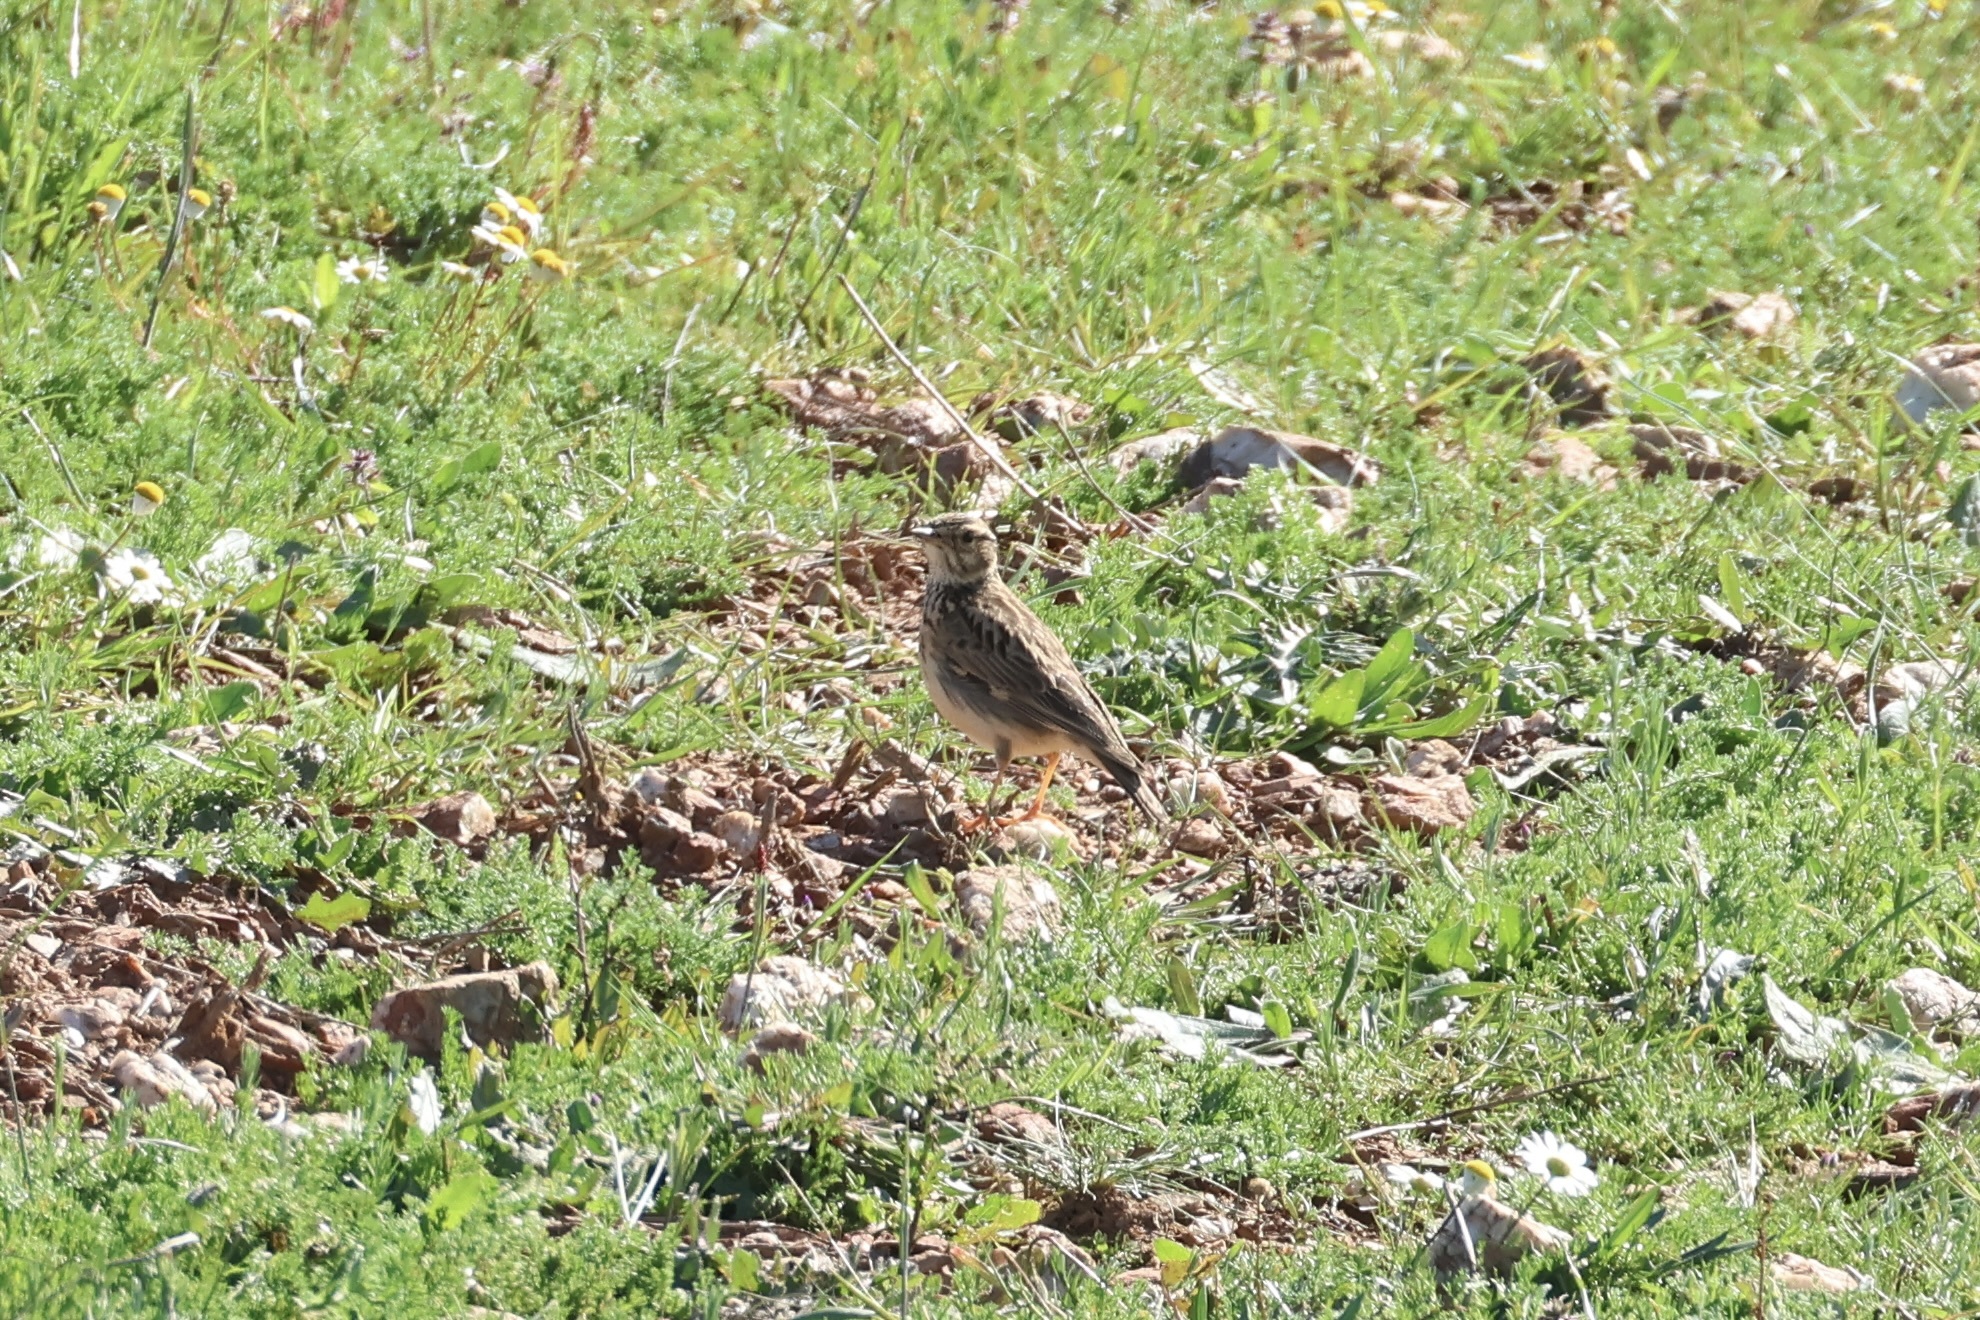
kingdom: Animalia
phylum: Chordata
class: Aves
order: Passeriformes
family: Alaudidae
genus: Lullula
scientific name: Lullula arborea
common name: Woodlark
